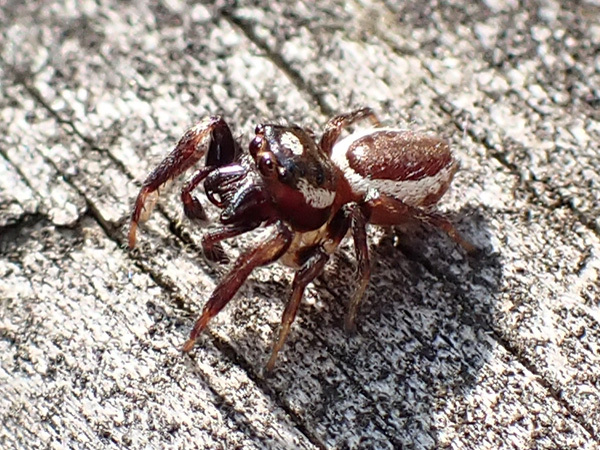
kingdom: Animalia
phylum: Arthropoda
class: Arachnida
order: Araneae
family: Salticidae
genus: Eris
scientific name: Eris militaris
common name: Bronze jumper
